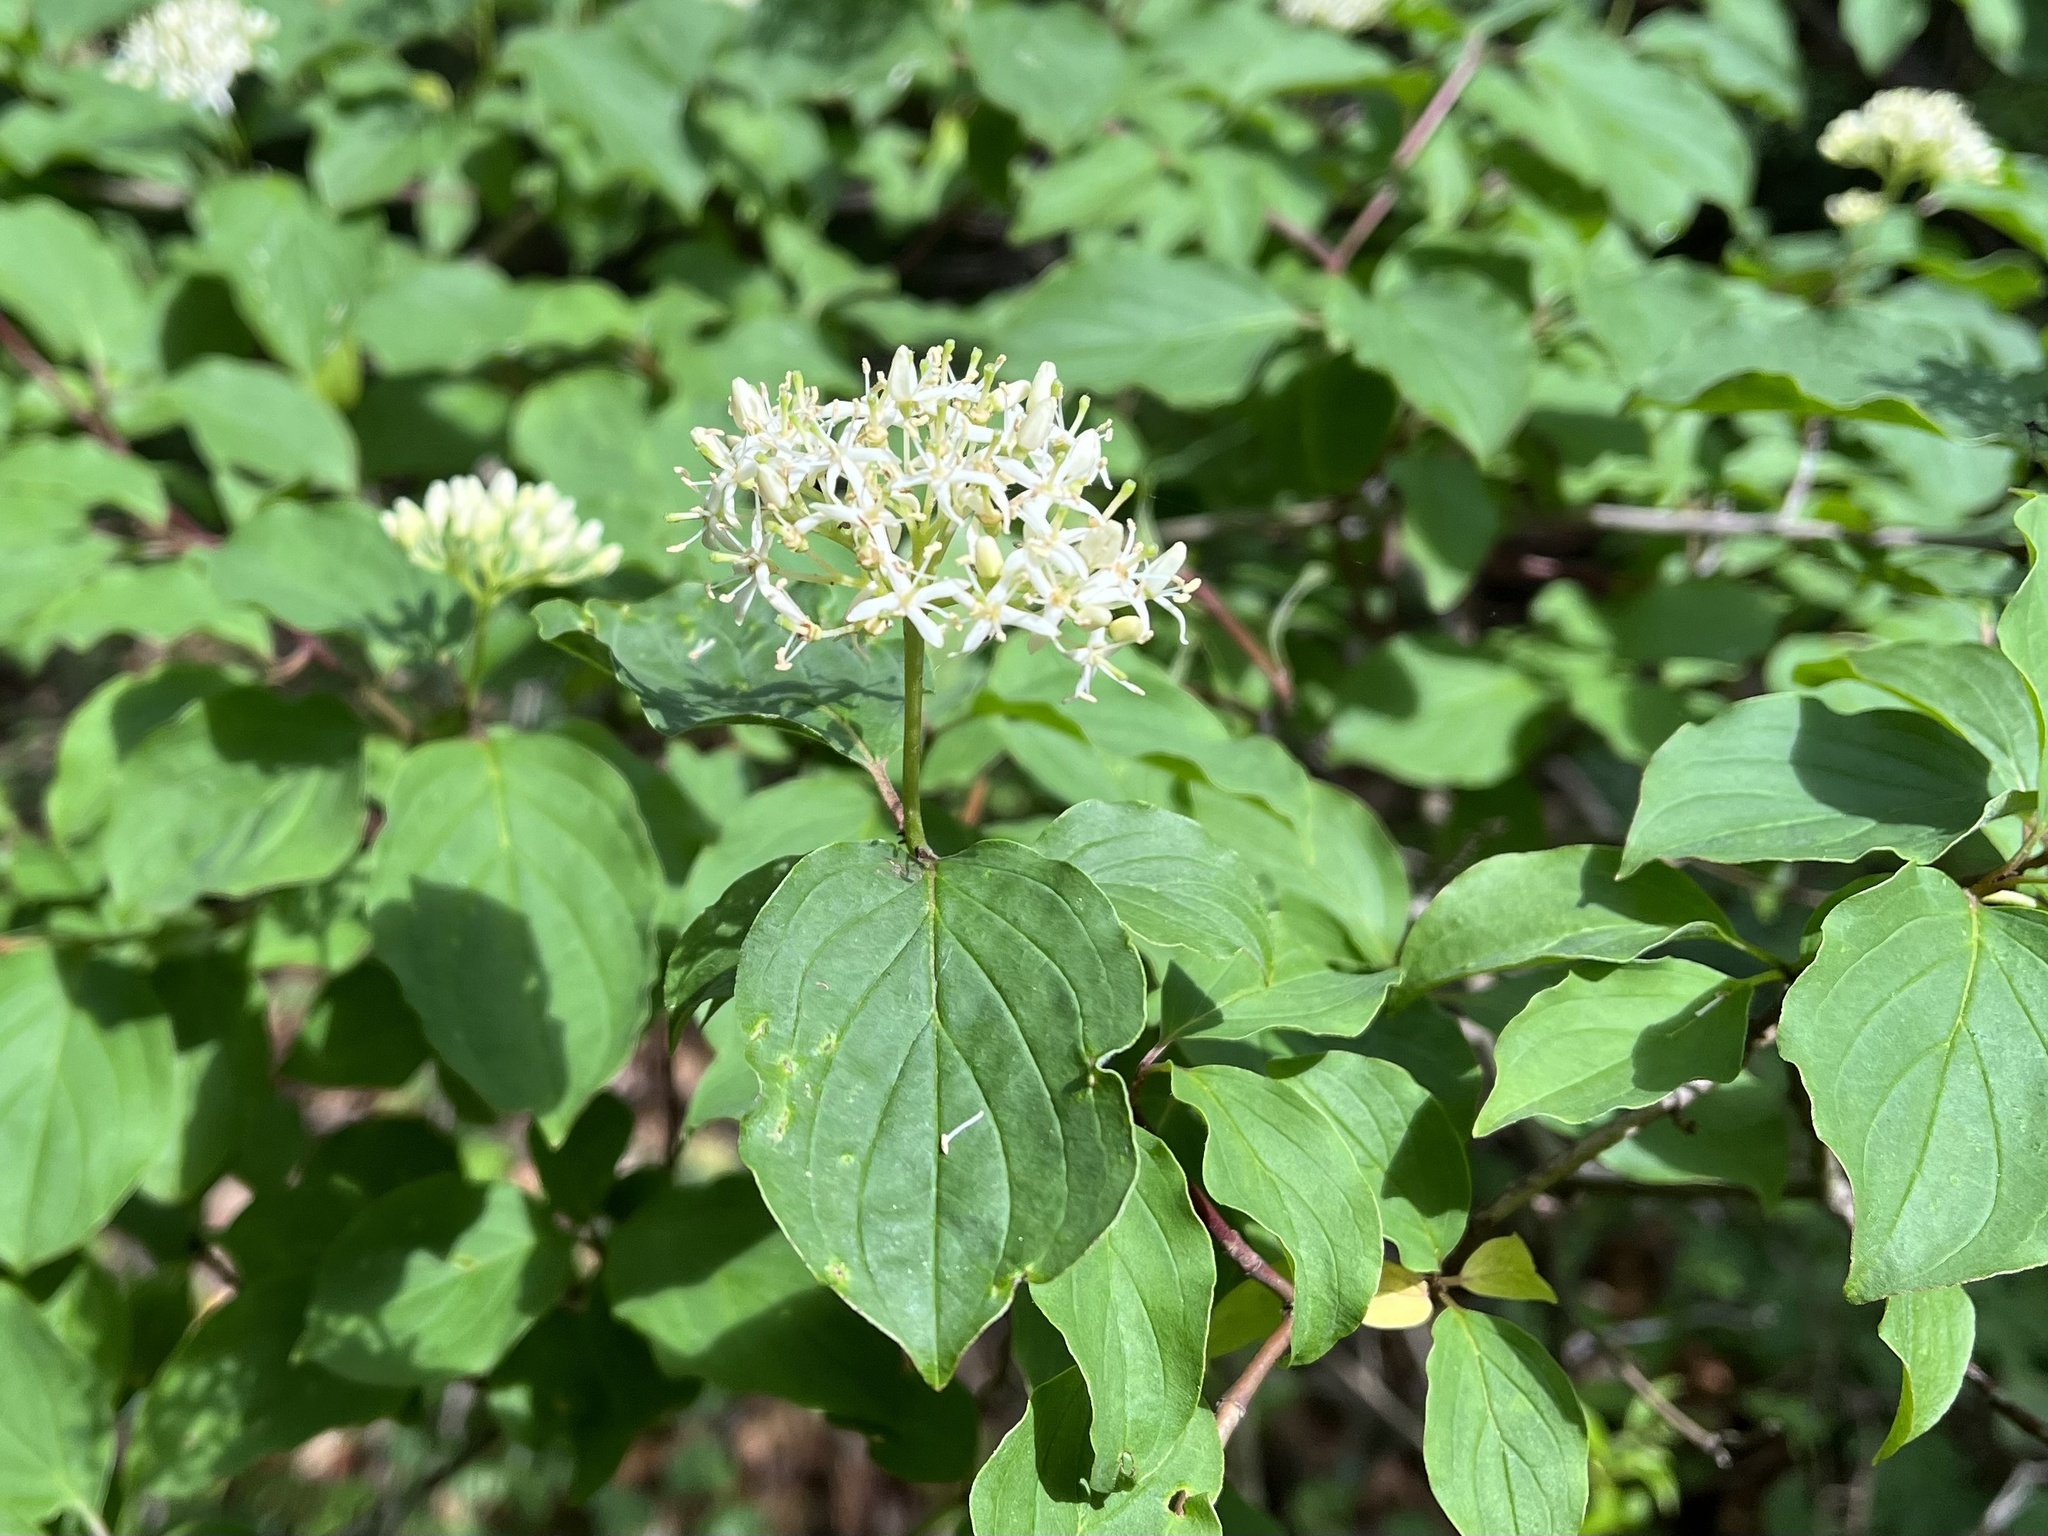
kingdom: Plantae
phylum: Tracheophyta
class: Magnoliopsida
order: Cornales
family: Cornaceae
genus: Cornus
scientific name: Cornus sanguinea
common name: Dogwood
